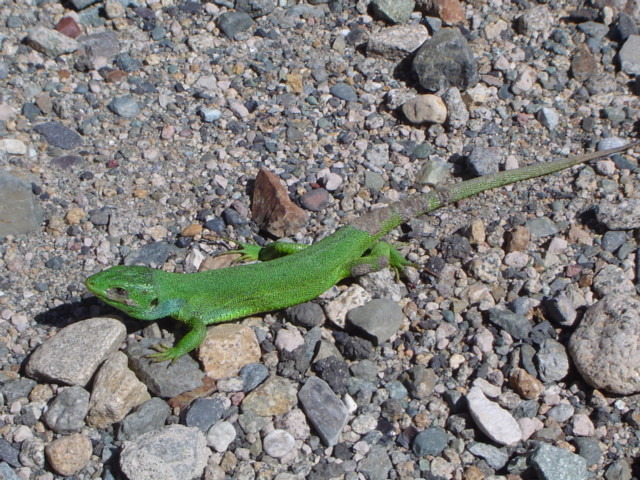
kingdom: Animalia
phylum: Chordata
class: Squamata
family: Lacertidae
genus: Lacerta
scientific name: Lacerta media
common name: Medium lizard
